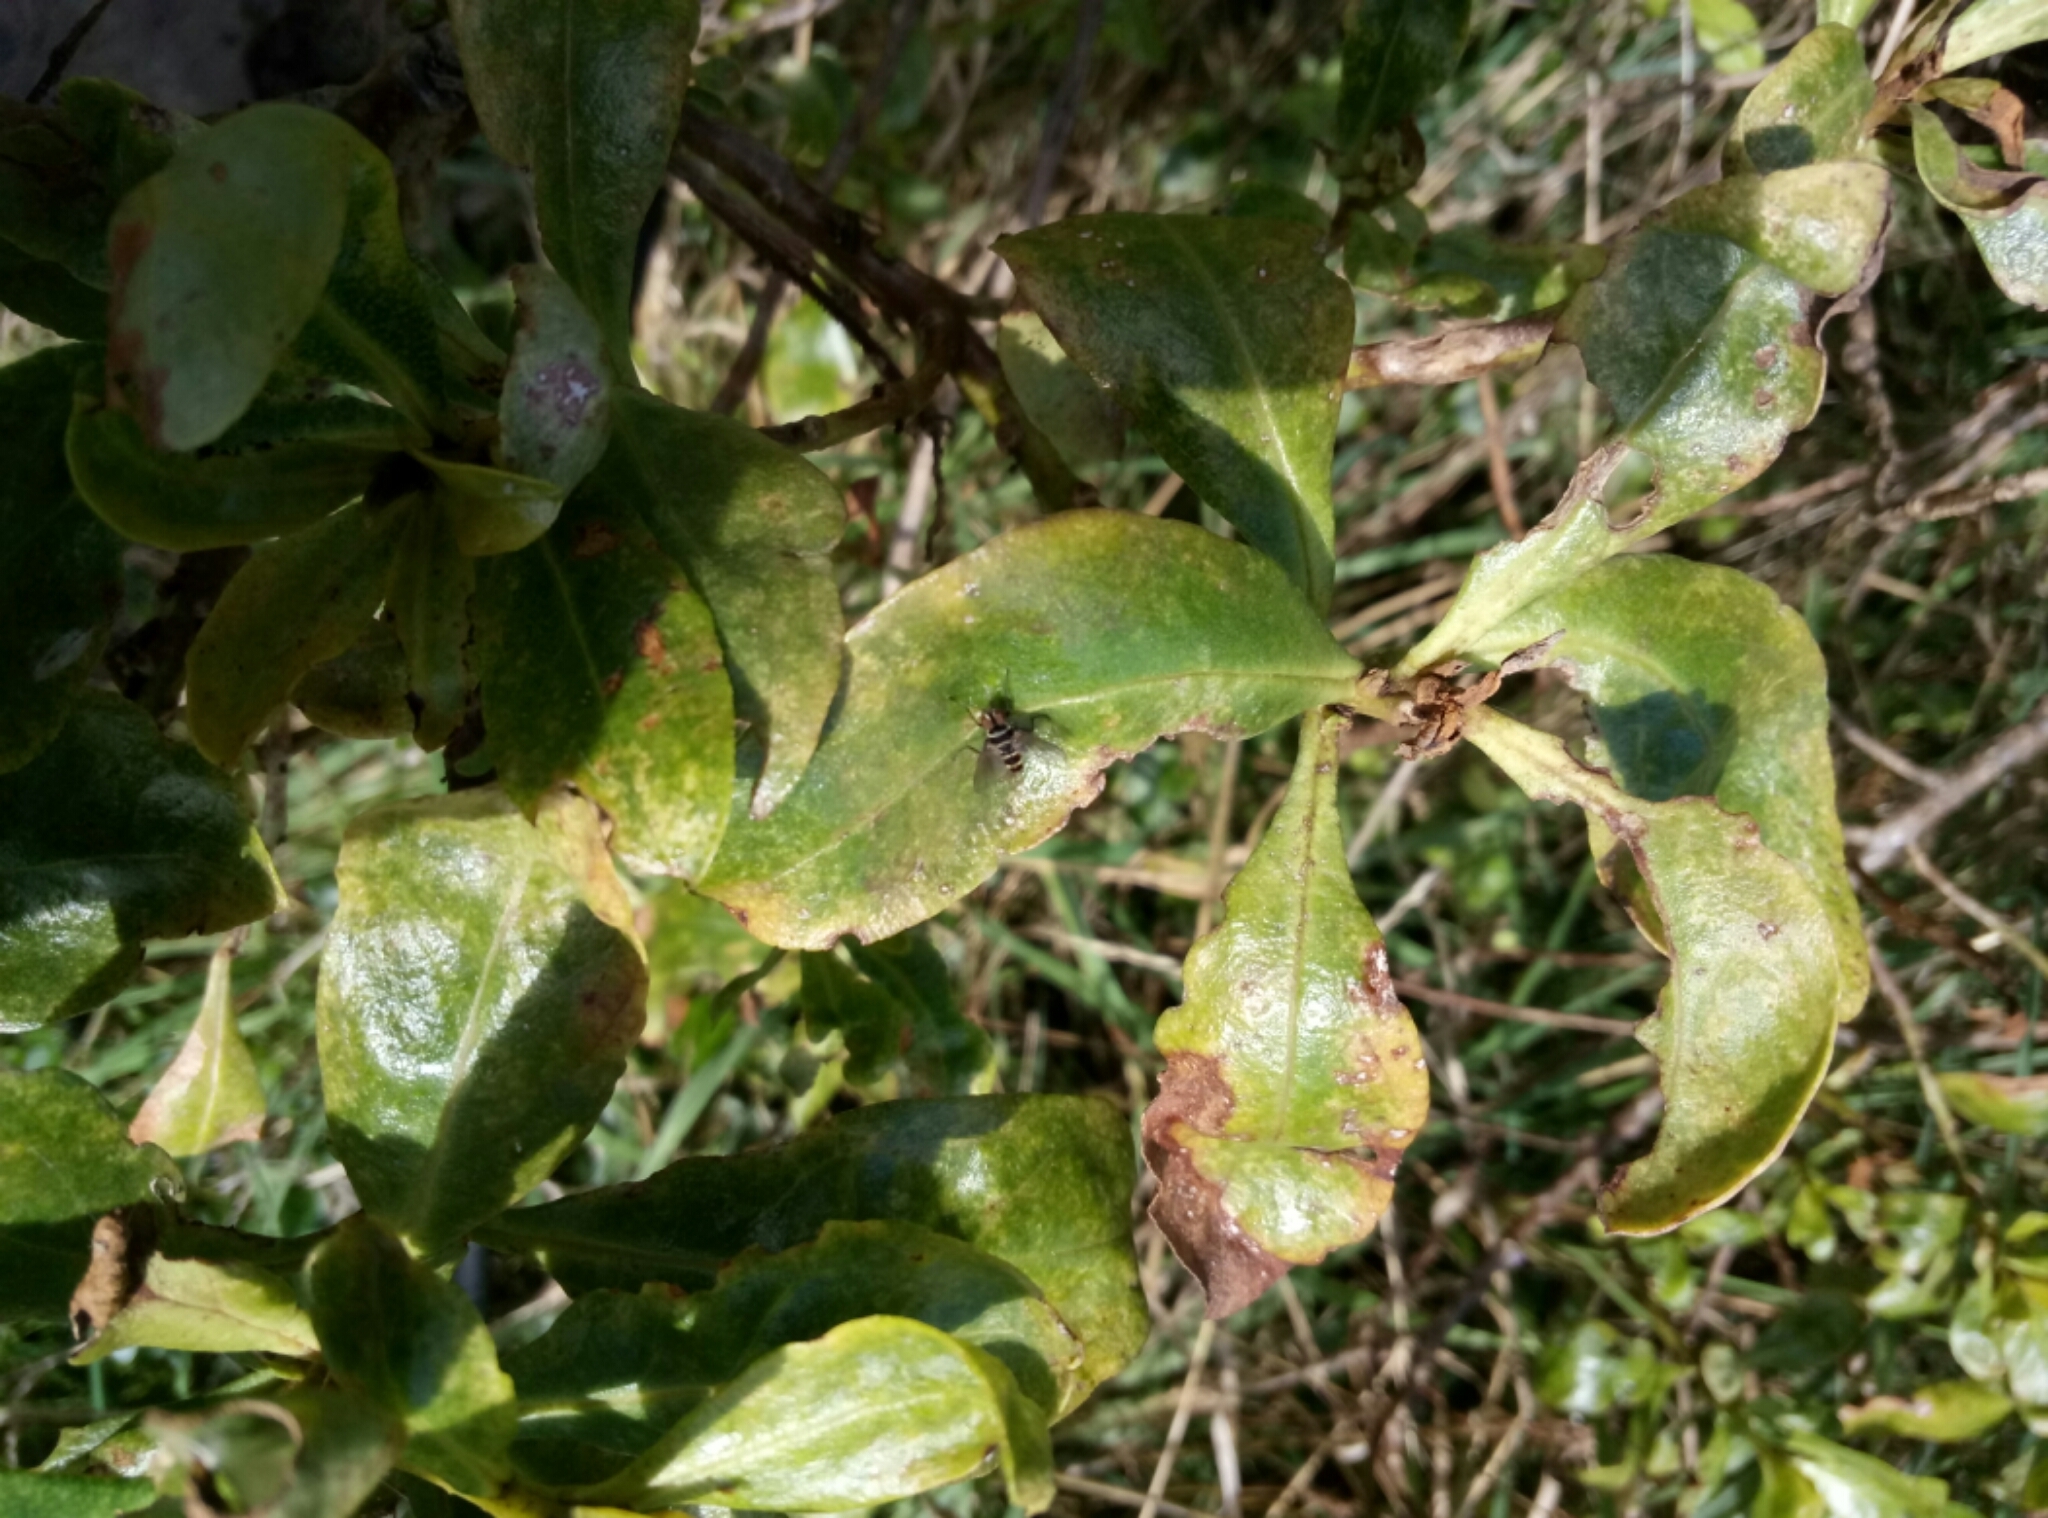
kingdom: Animalia
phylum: Arthropoda
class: Insecta
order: Diptera
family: Tachinidae
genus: Trigonospila
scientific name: Trigonospila brevifacies
